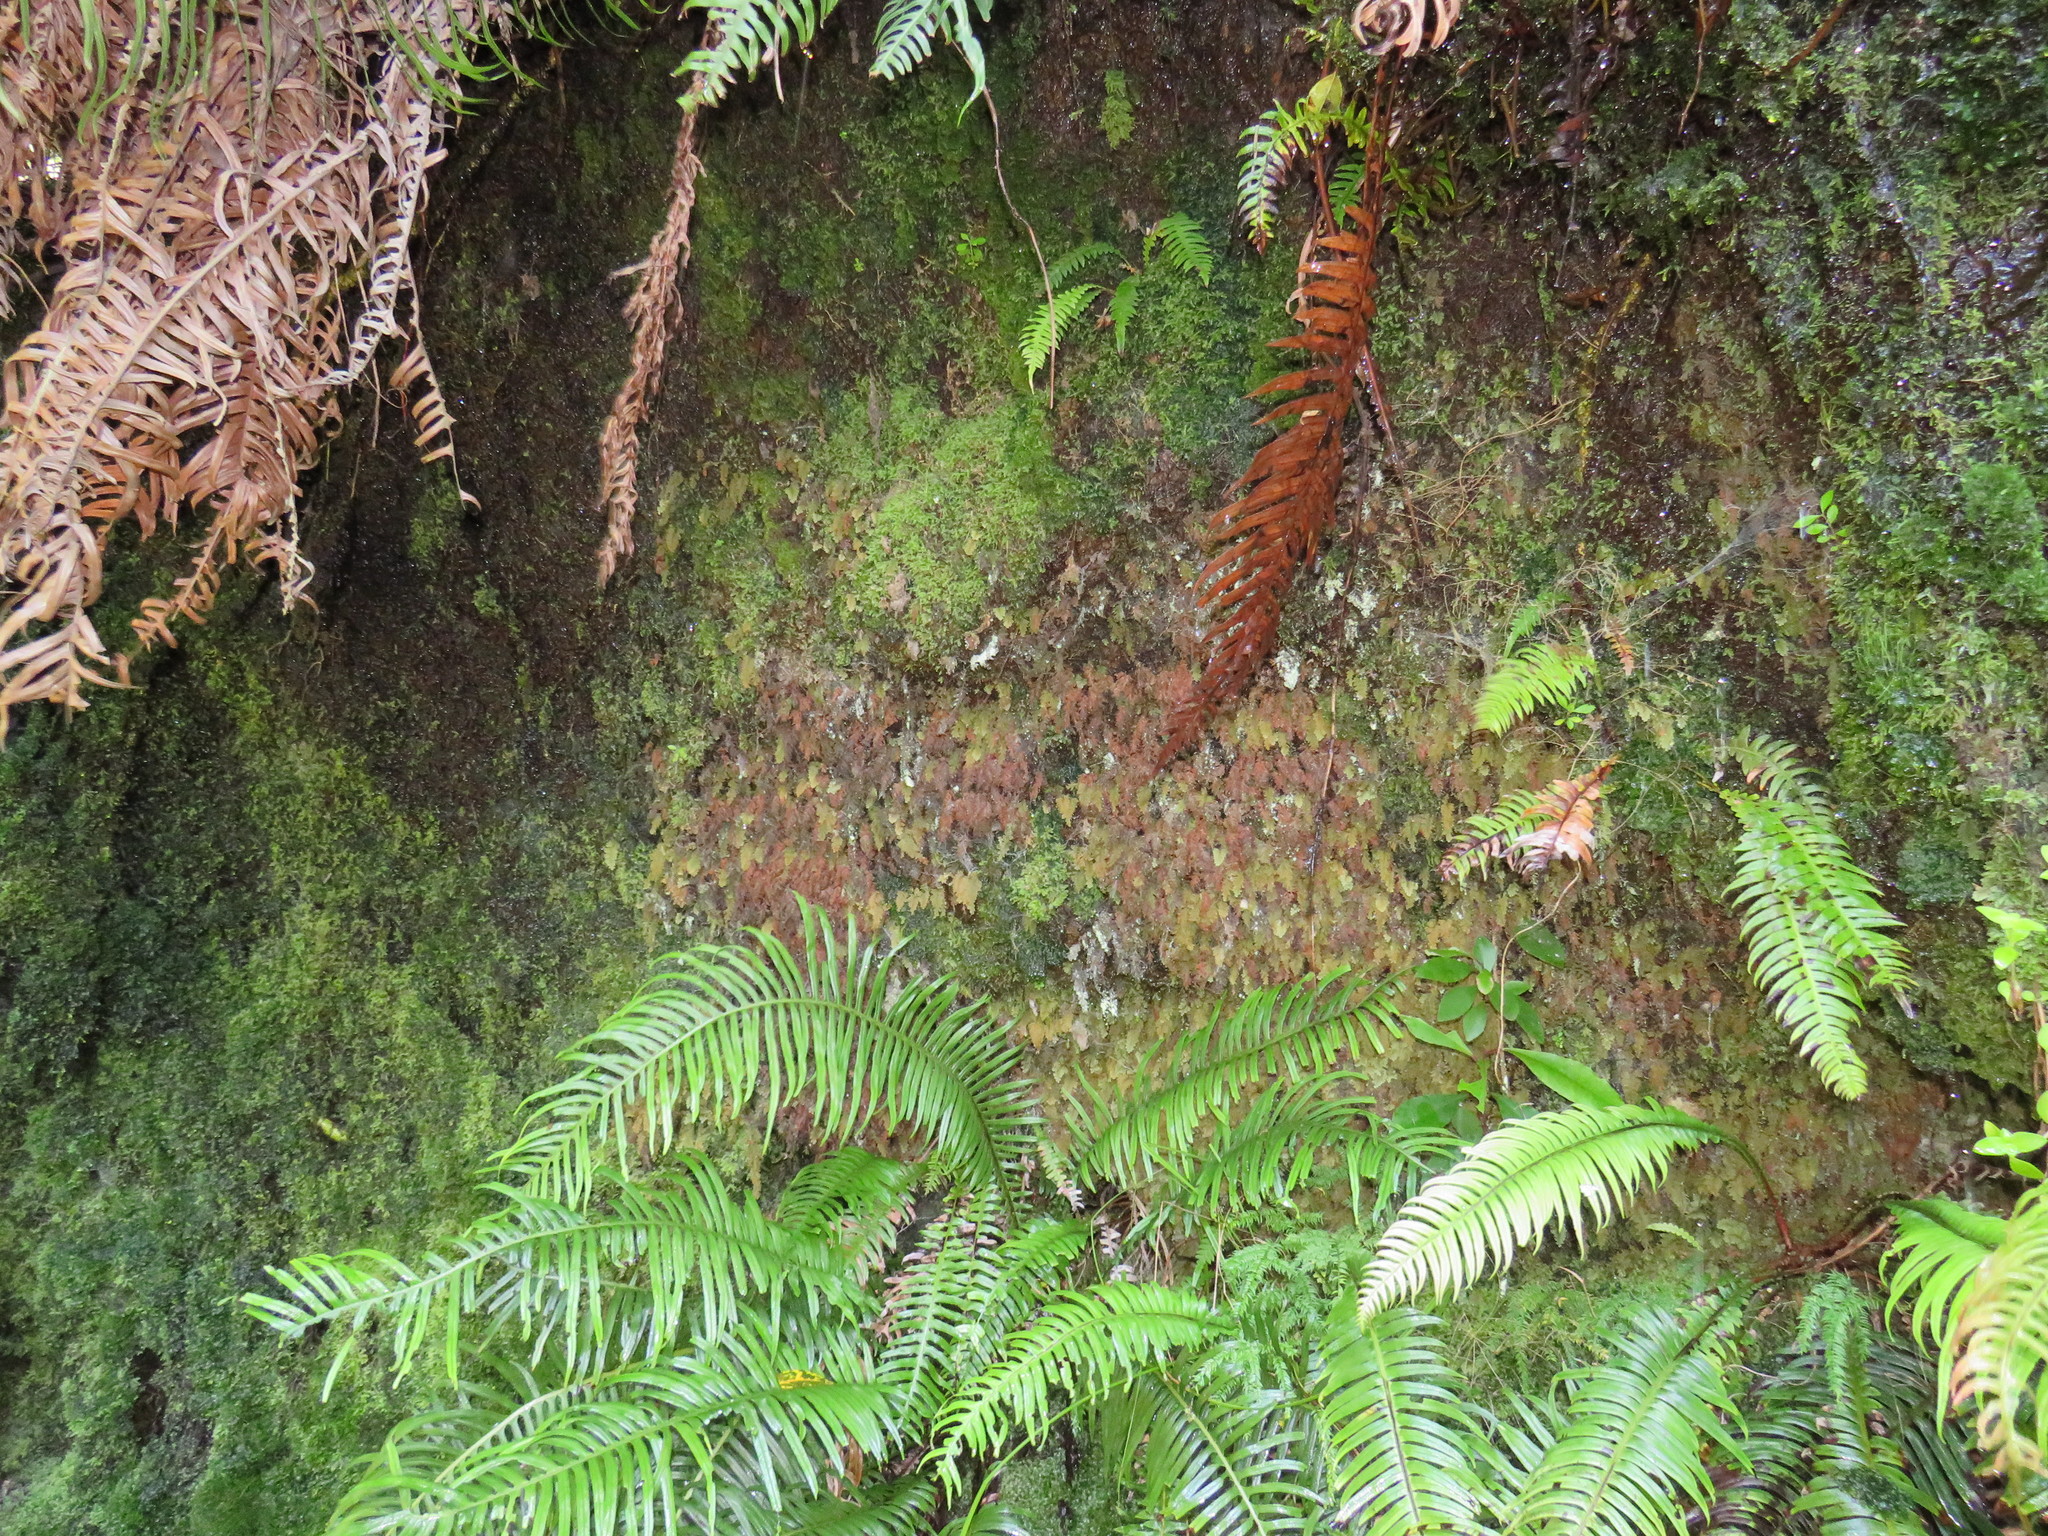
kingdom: Plantae
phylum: Tracheophyta
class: Polypodiopsida
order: Hymenophyllales
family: Hymenophyllaceae
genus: Hymenophyllum
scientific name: Hymenophyllum aeruginosum
